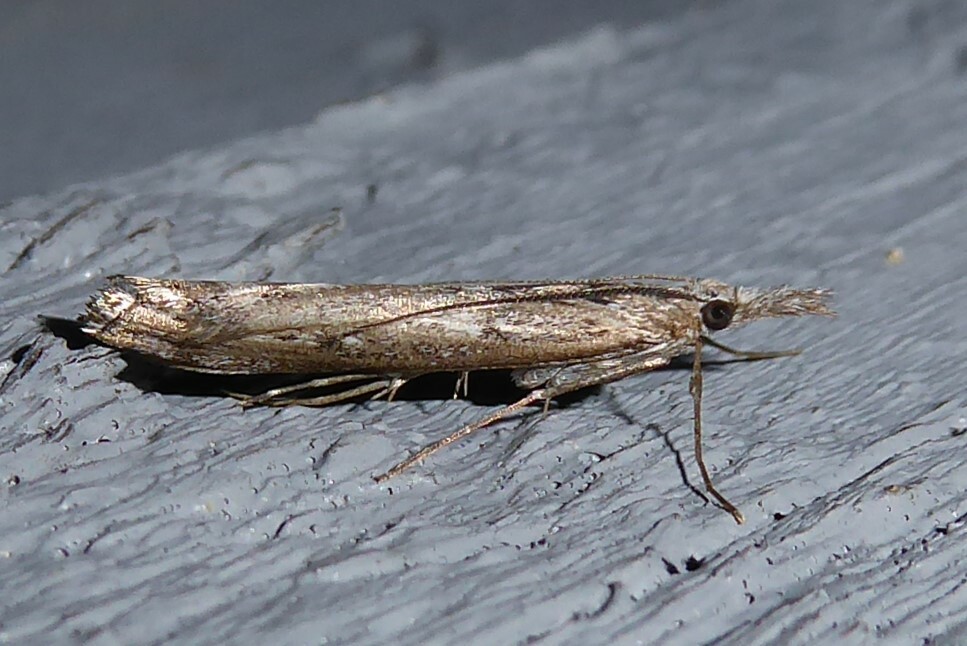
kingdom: Animalia
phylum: Arthropoda
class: Insecta
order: Lepidoptera
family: Crambidae
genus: Orocrambus
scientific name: Orocrambus cyclopicus
